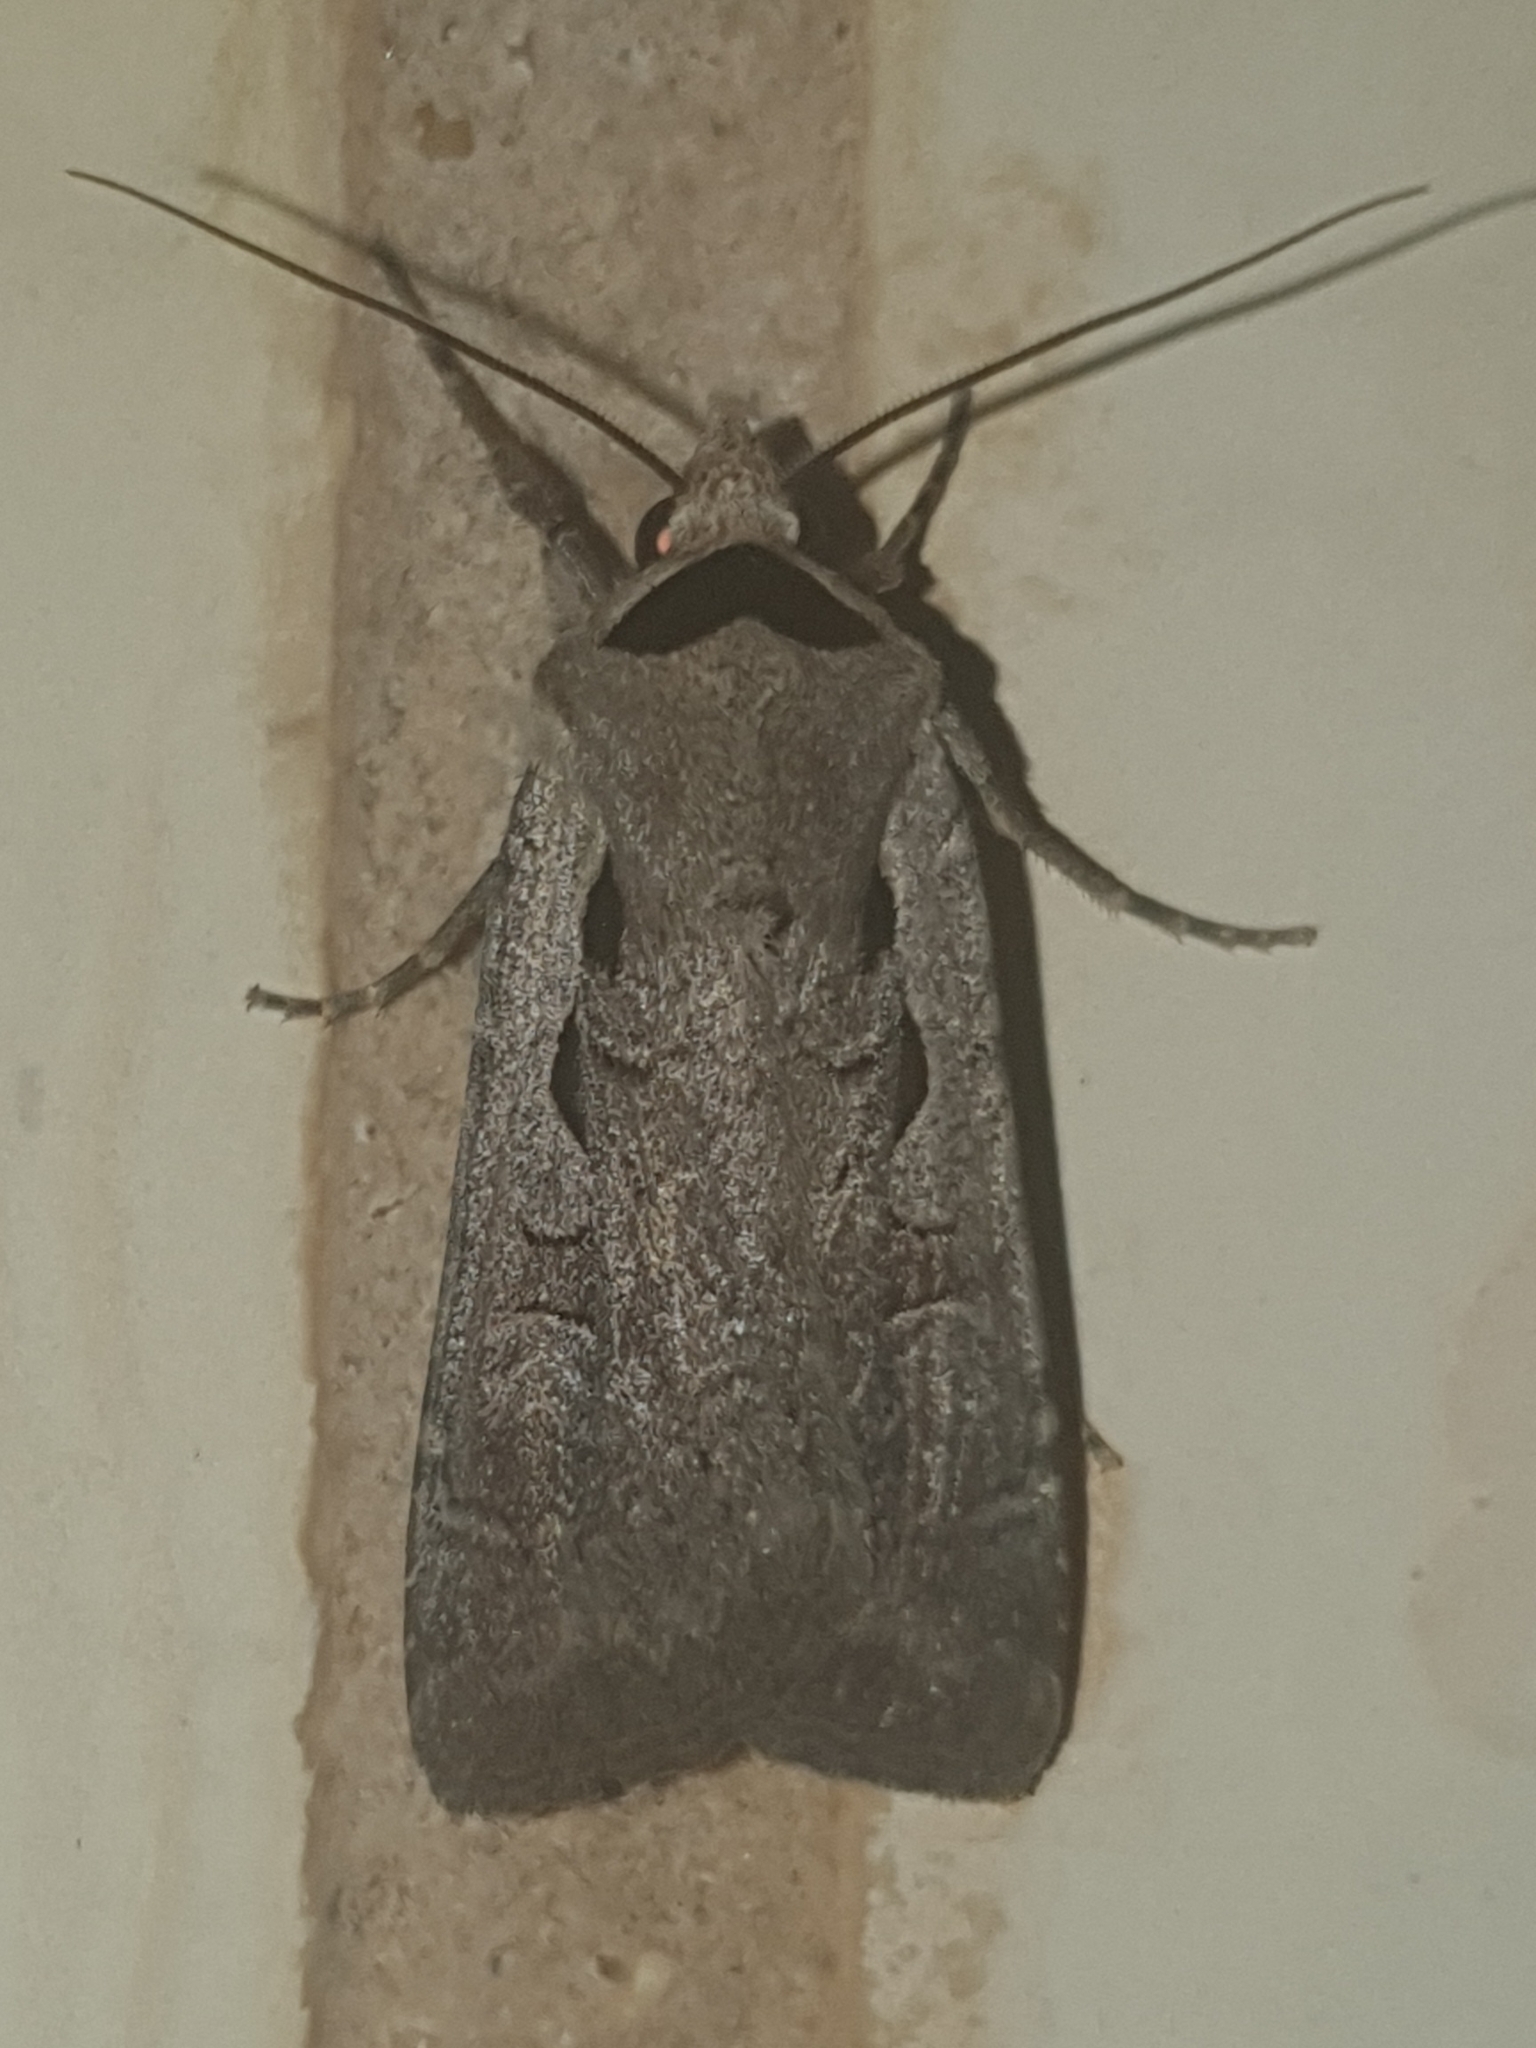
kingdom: Animalia
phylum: Arthropoda
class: Insecta
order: Lepidoptera
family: Noctuidae
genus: Basistriga
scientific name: Basistriga flammatra
